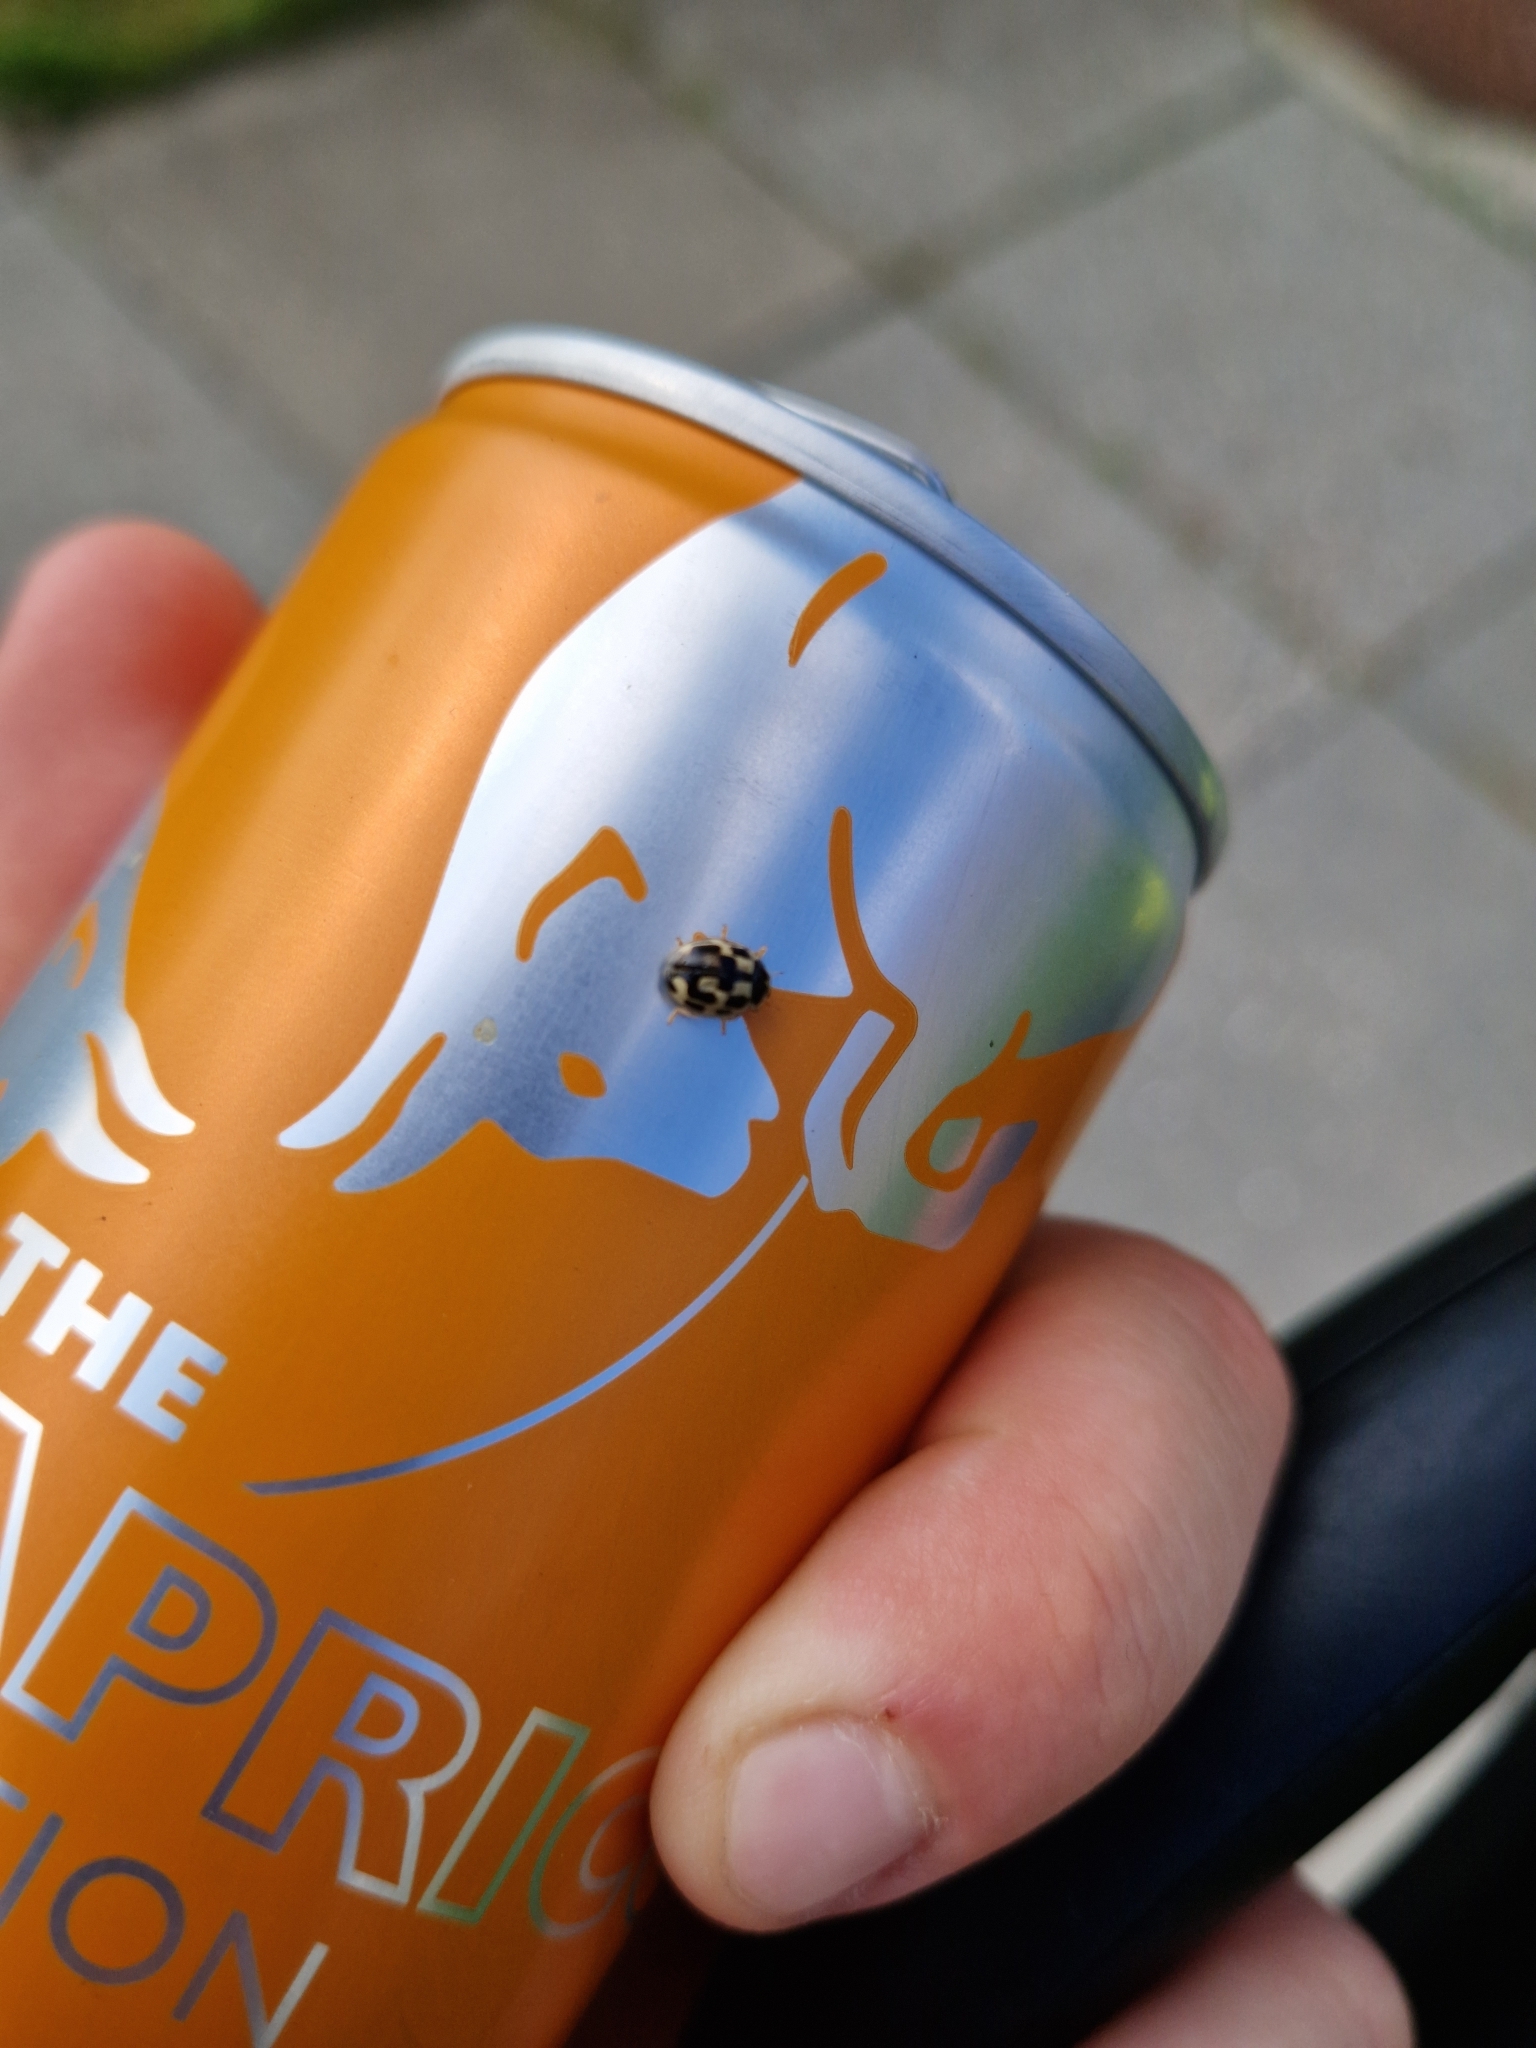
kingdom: Animalia
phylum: Arthropoda
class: Insecta
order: Coleoptera
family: Coccinellidae
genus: Propylaea
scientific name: Propylaea quatuordecimpunctata
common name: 14-spotted ladybird beetle
